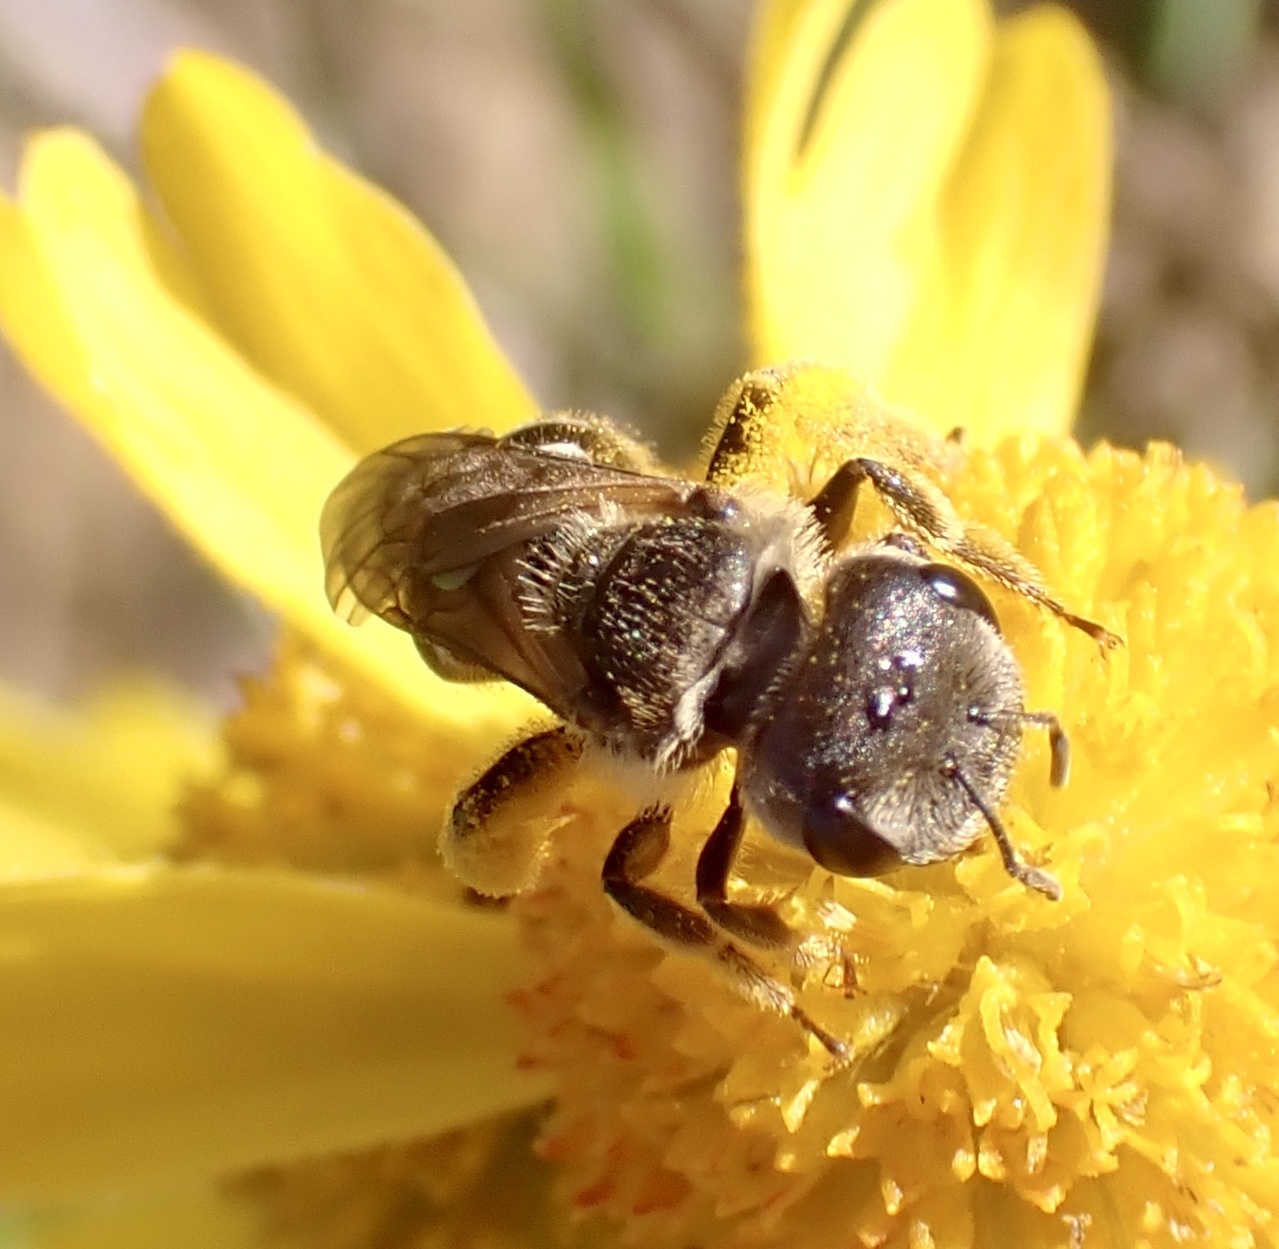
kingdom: Animalia
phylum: Arthropoda
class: Insecta
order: Hymenoptera
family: Halictidae
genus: Halictus
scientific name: Halictus ligatus
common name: Ligated furrow bee
